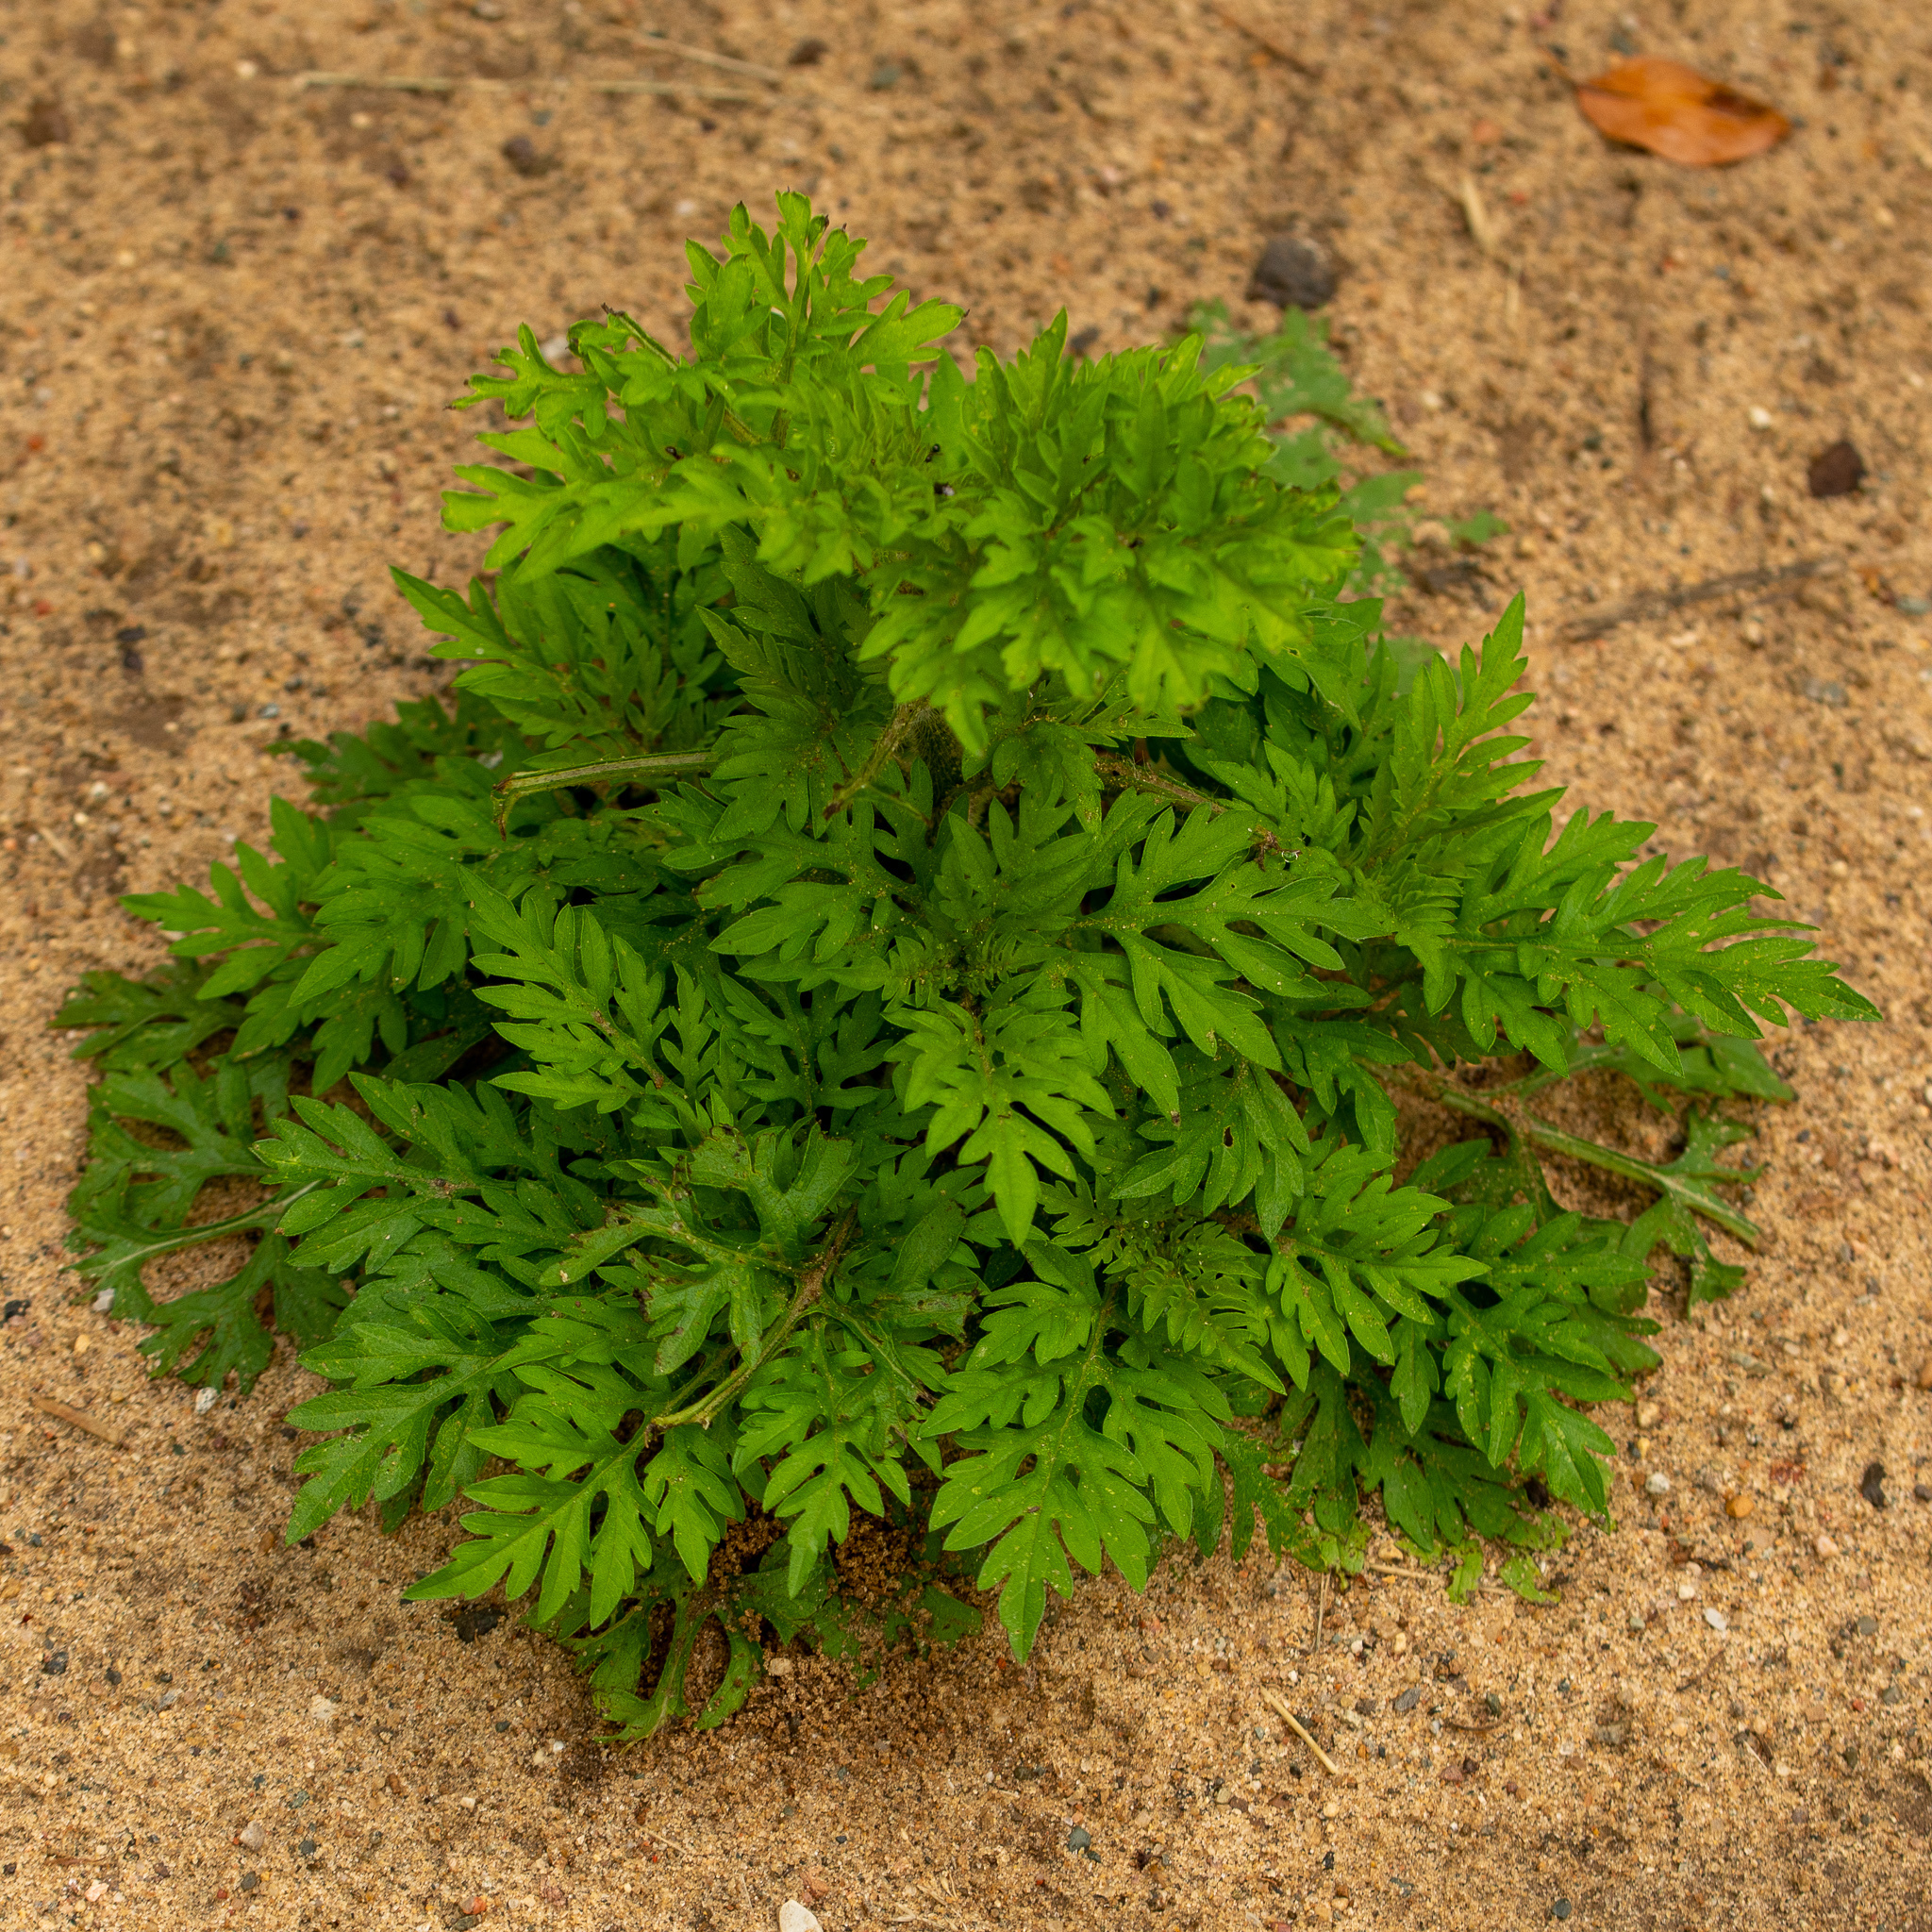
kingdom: Plantae
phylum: Tracheophyta
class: Magnoliopsida
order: Asterales
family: Asteraceae
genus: Ambrosia
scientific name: Ambrosia artemisiifolia
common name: Annual ragweed
